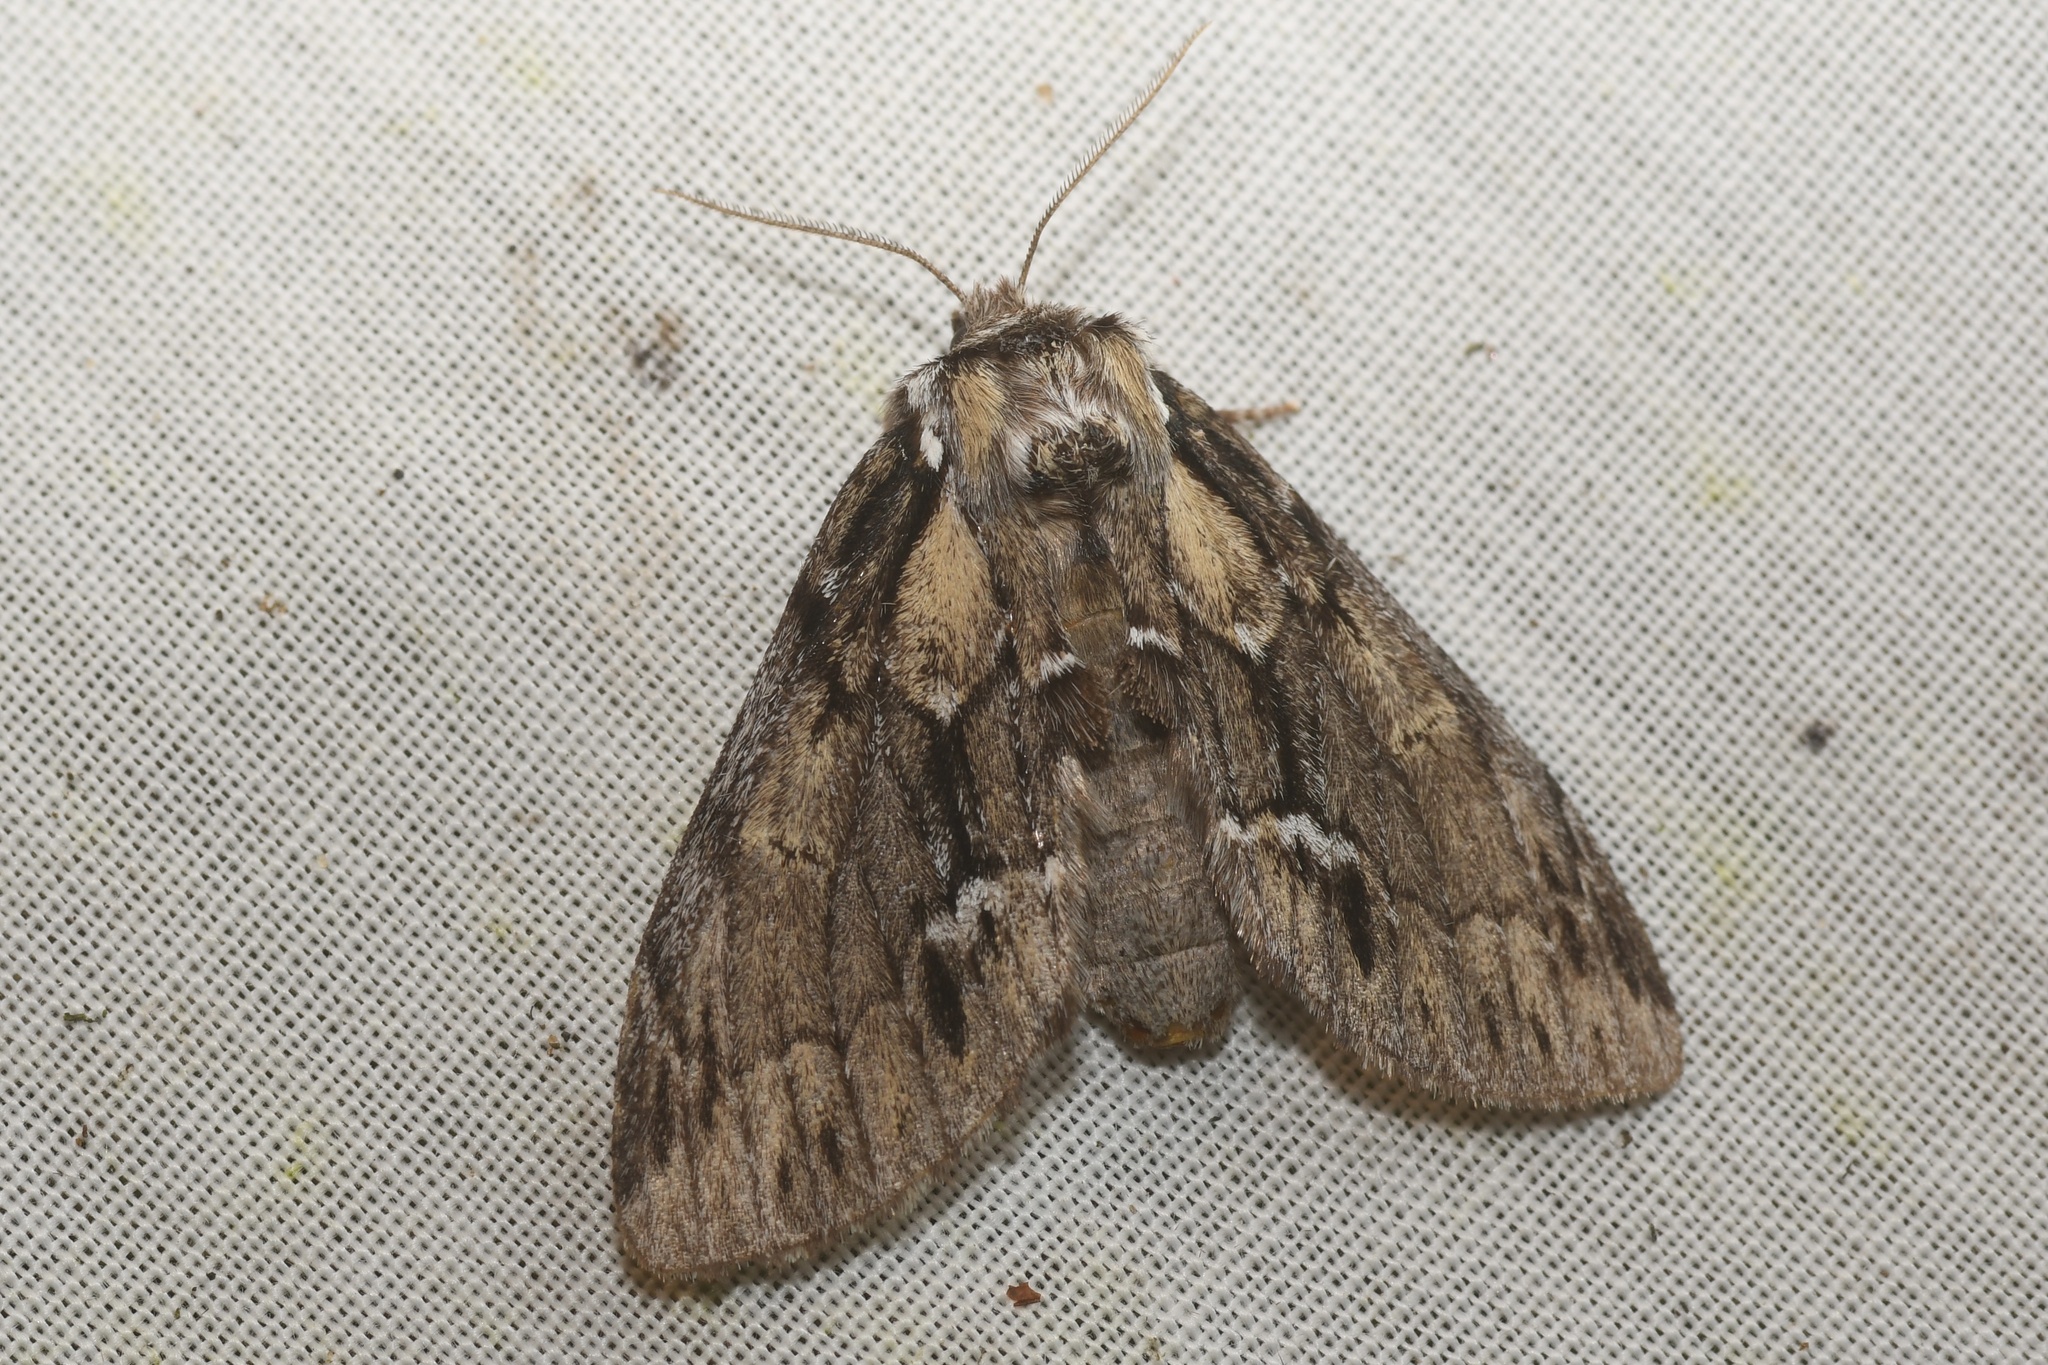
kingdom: Animalia
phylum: Arthropoda
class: Insecta
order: Lepidoptera
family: Notodontidae
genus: Paraeschra
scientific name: Paraeschra georgica
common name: Georgian prominent
